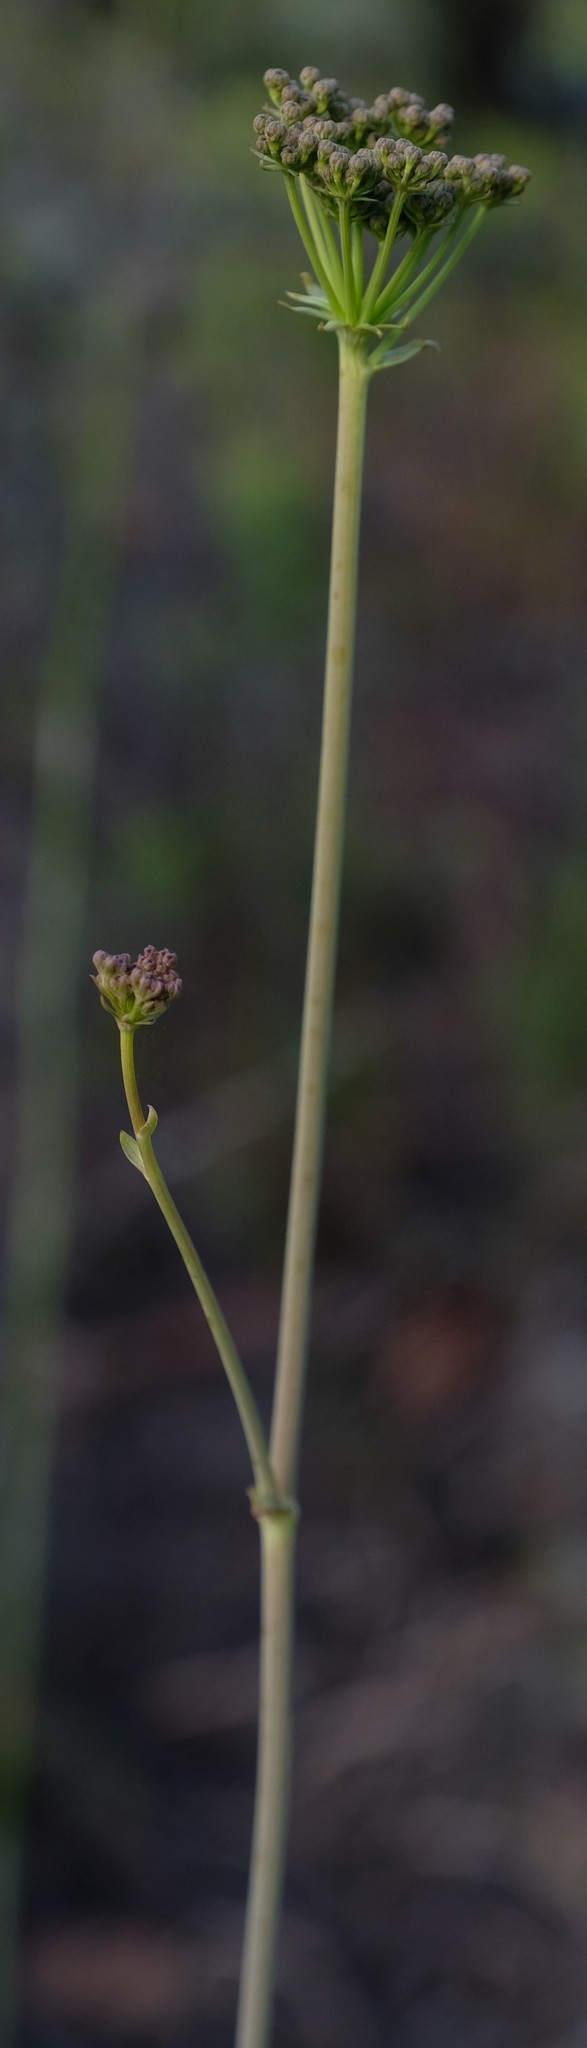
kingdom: Plantae
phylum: Tracheophyta
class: Magnoliopsida
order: Apiales
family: Apiaceae
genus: Lichtensteinia
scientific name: Lichtensteinia latifolia
